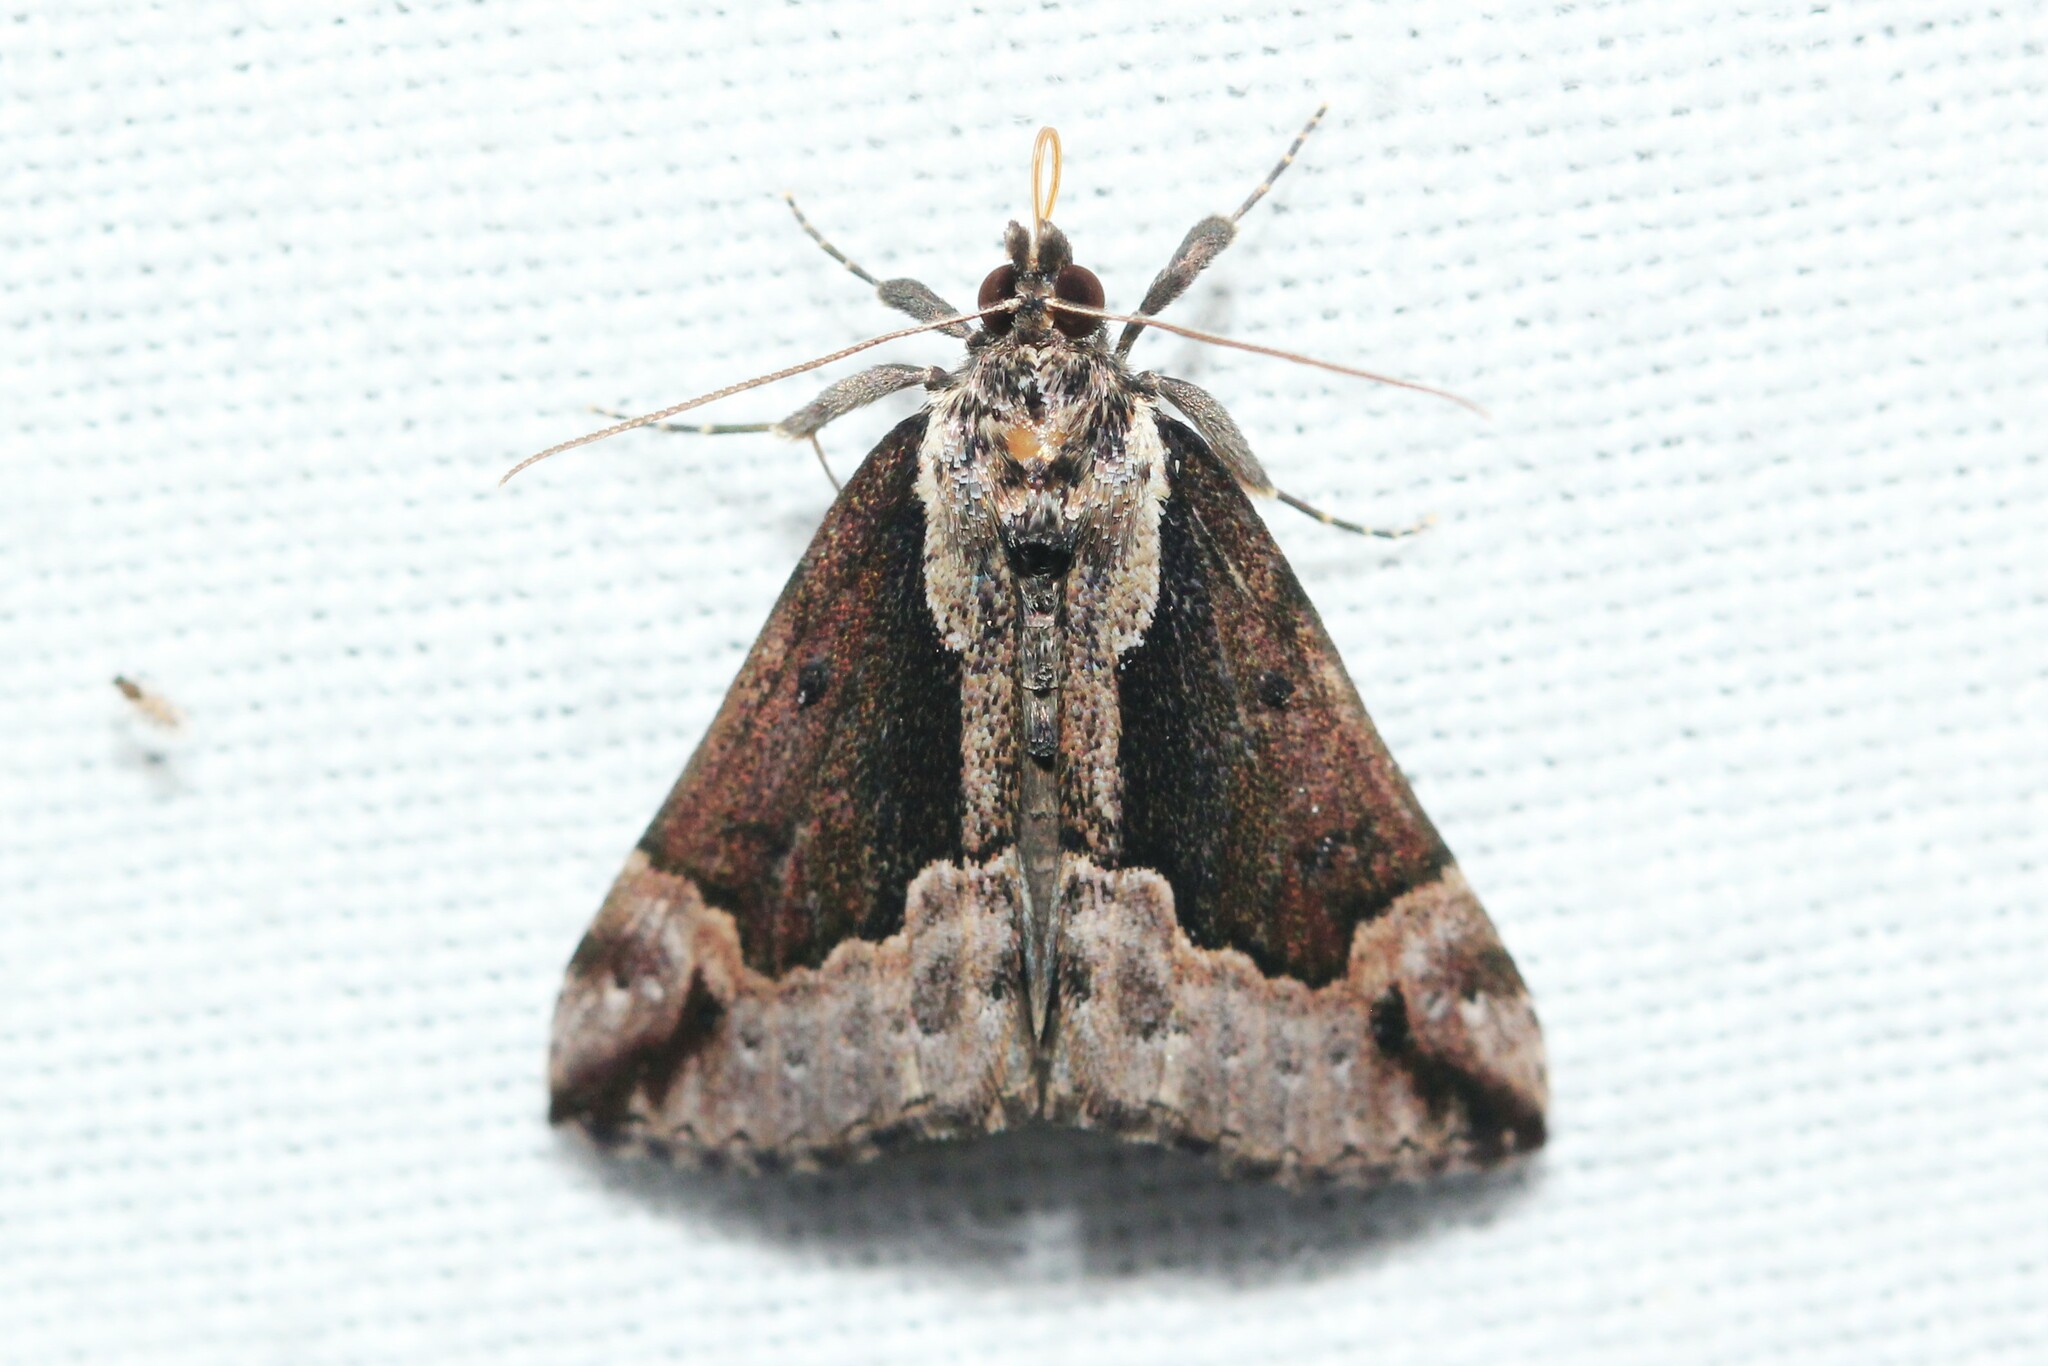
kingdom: Animalia
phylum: Arthropoda
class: Insecta
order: Lepidoptera
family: Erebidae
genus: Hypena
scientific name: Hypena baltimoralis
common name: Baltimore snout
